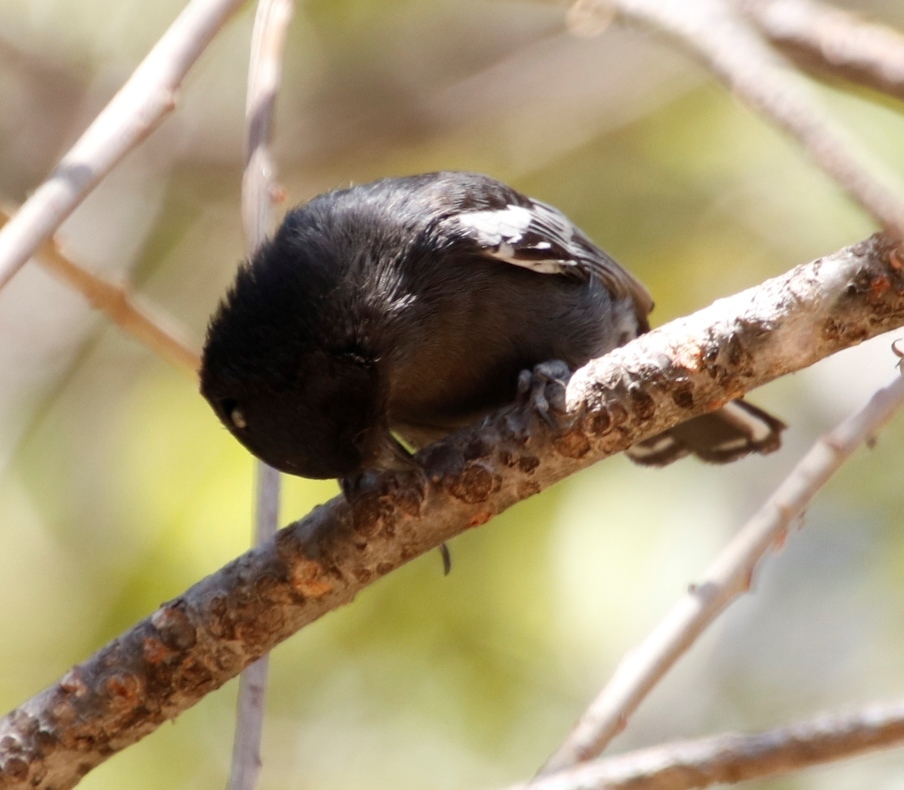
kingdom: Animalia
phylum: Chordata
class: Aves
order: Passeriformes
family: Paridae
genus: Parus
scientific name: Parus niger
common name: Southern black tit
